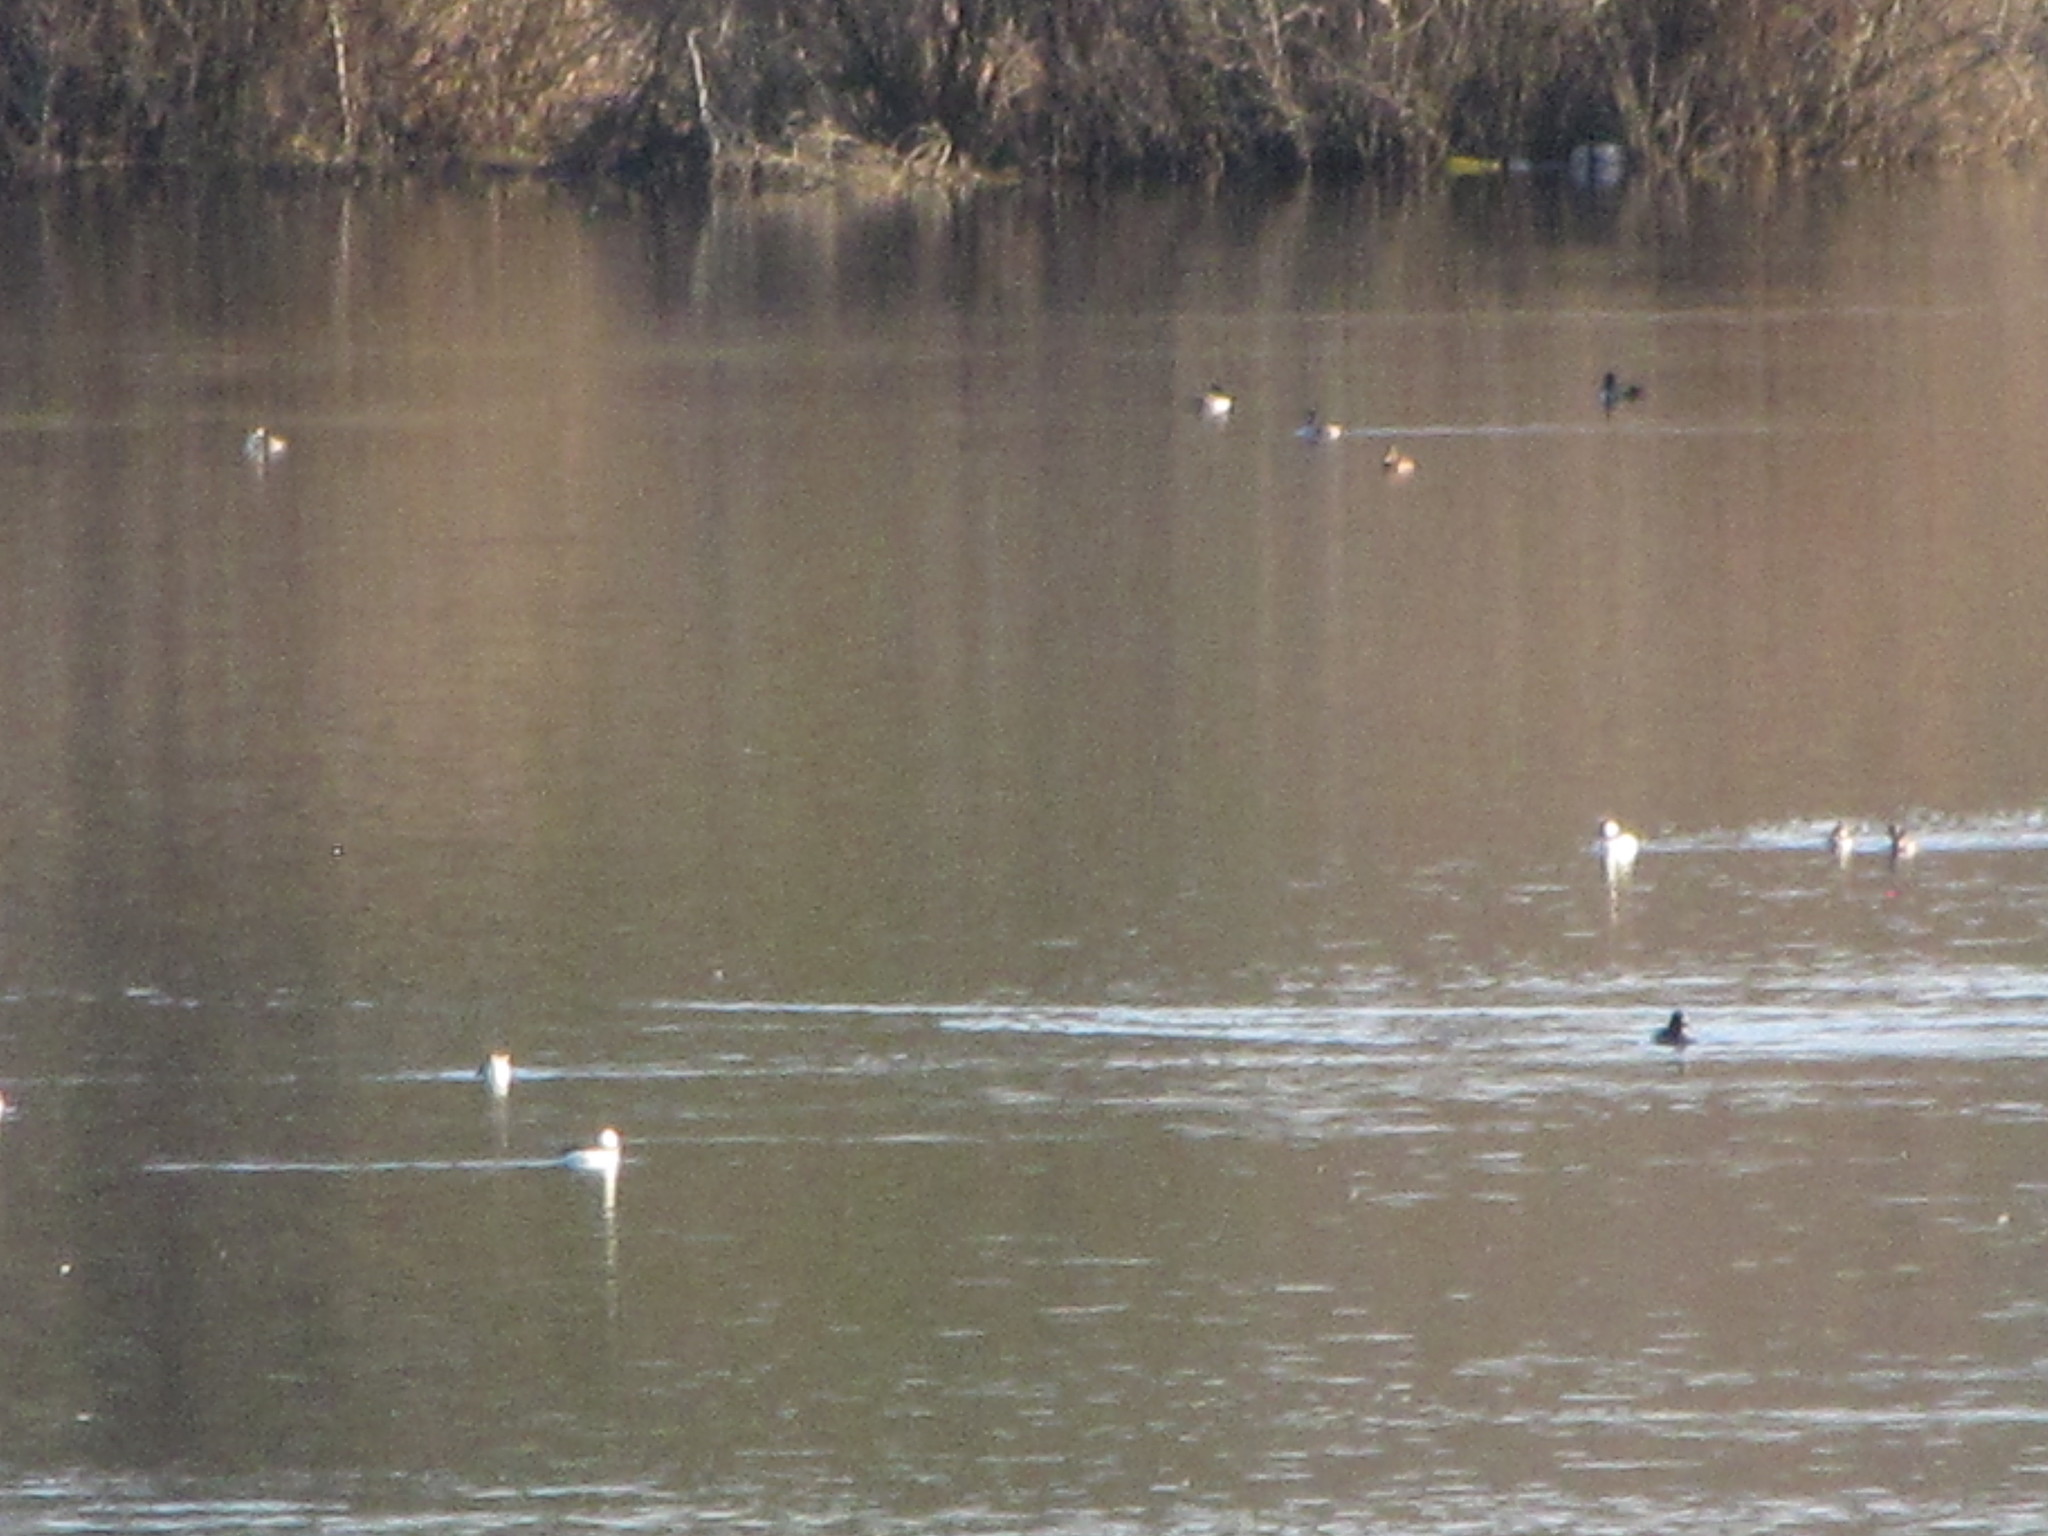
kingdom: Animalia
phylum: Chordata
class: Aves
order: Anseriformes
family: Anatidae
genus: Bucephala
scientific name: Bucephala albeola
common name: Bufflehead
